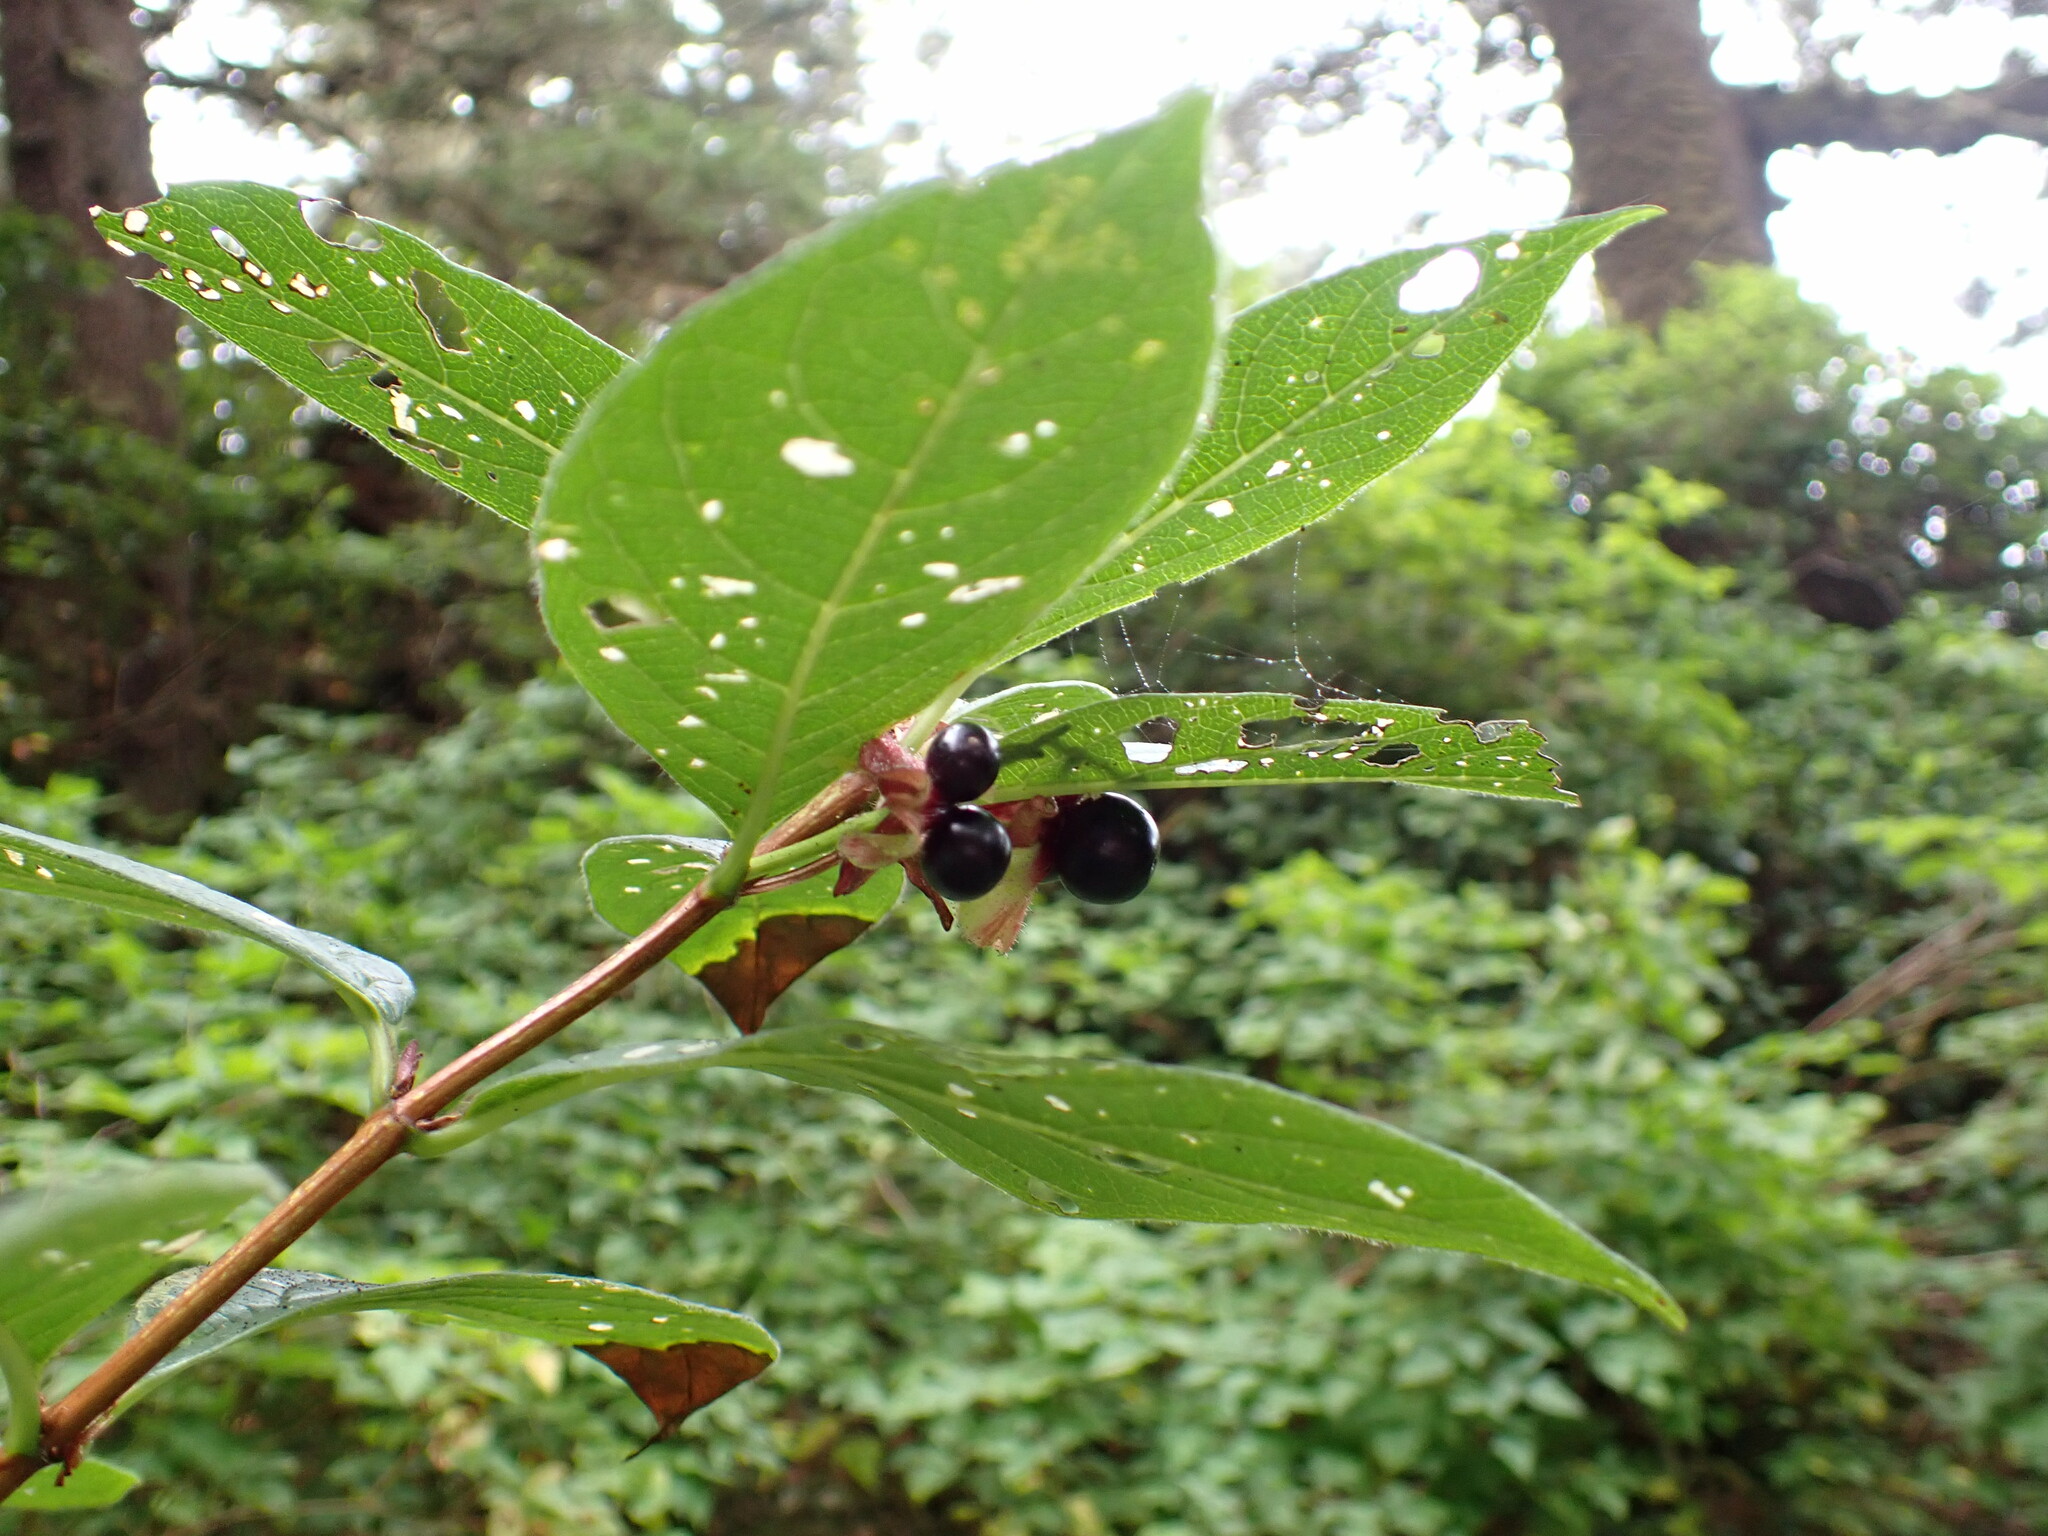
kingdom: Plantae
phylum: Tracheophyta
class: Magnoliopsida
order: Dipsacales
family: Caprifoliaceae
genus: Lonicera
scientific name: Lonicera involucrata
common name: Californian honeysuckle
